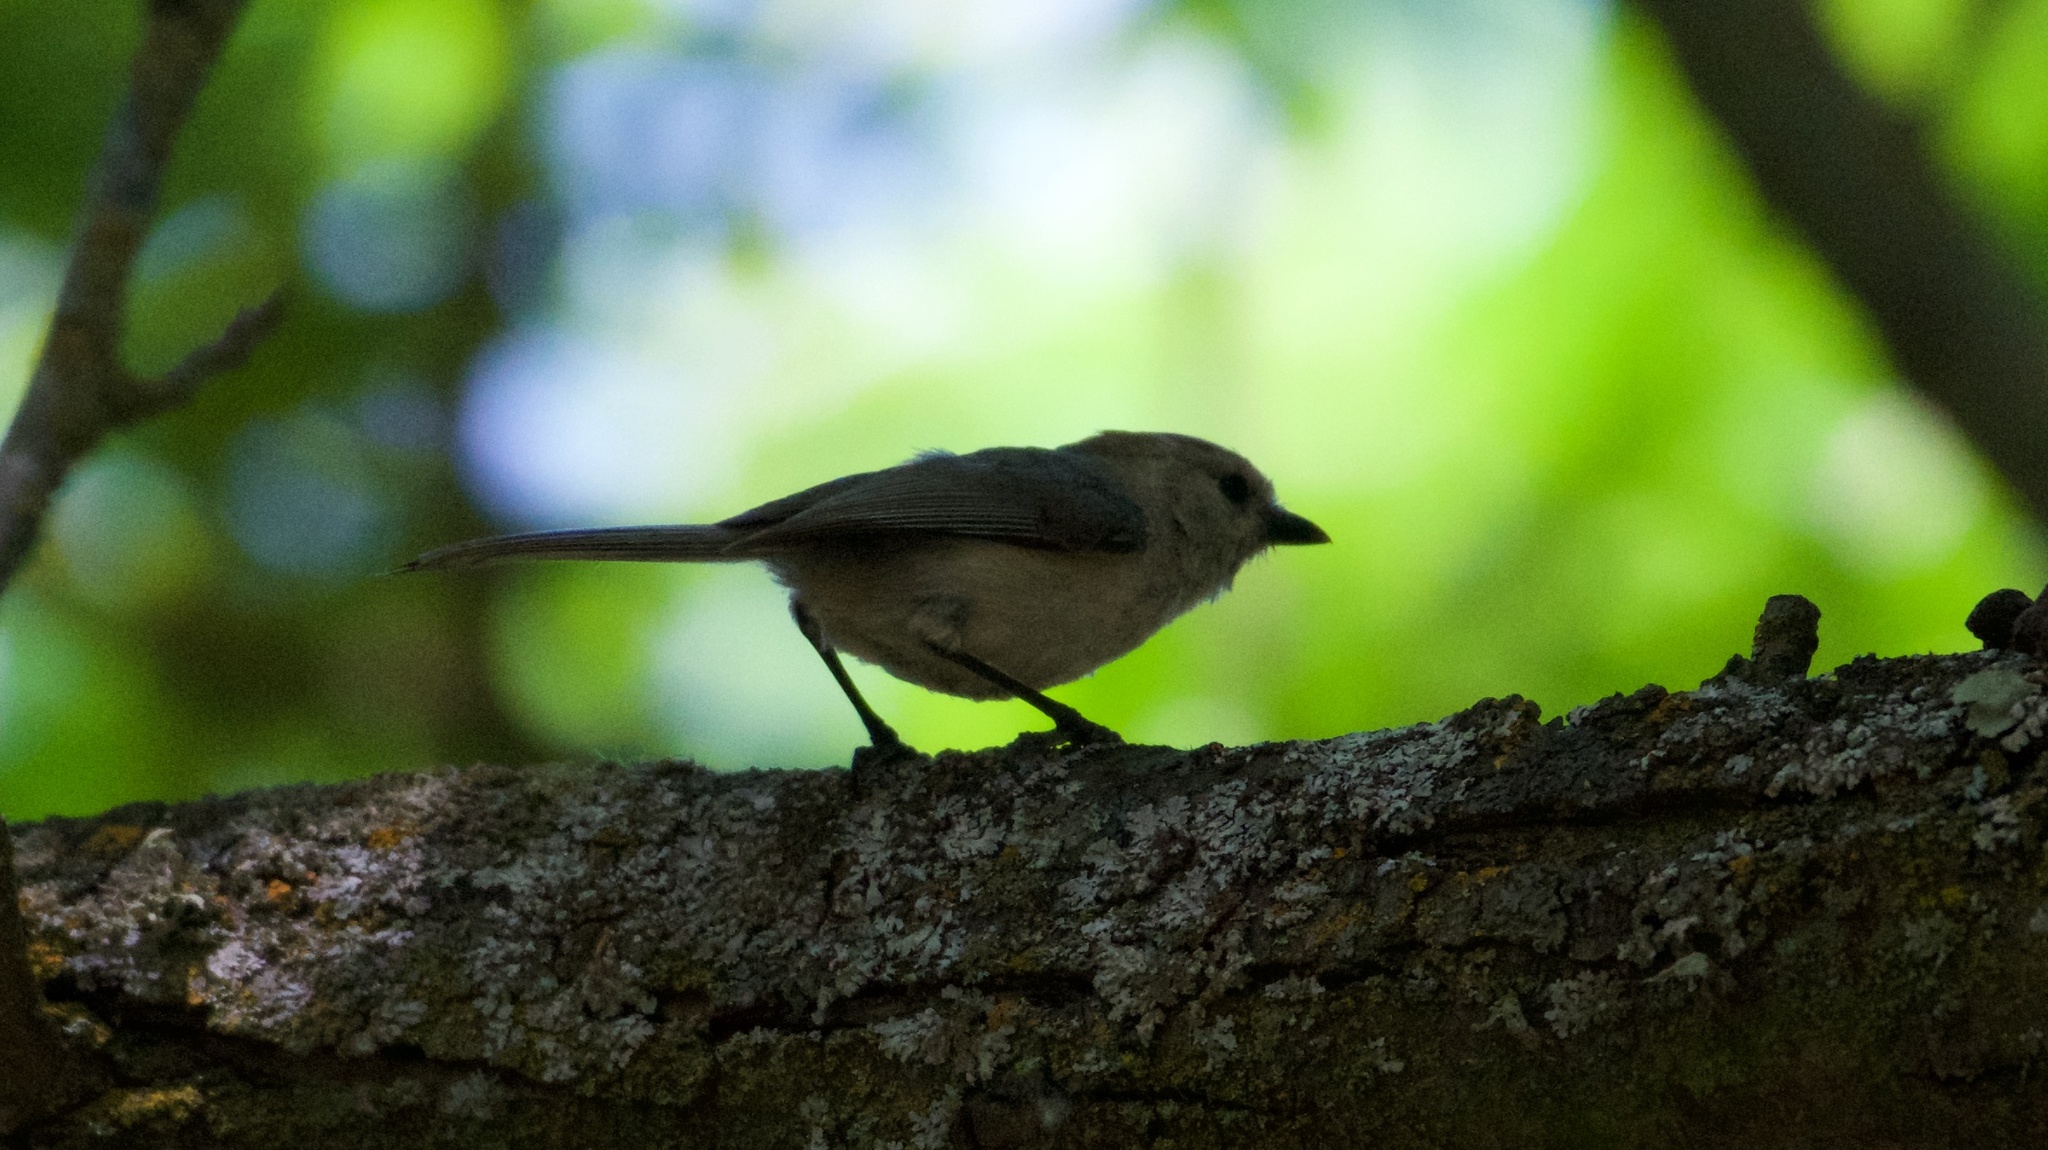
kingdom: Animalia
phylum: Chordata
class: Aves
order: Passeriformes
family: Aegithalidae
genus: Psaltriparus
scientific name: Psaltriparus minimus
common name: American bushtit
